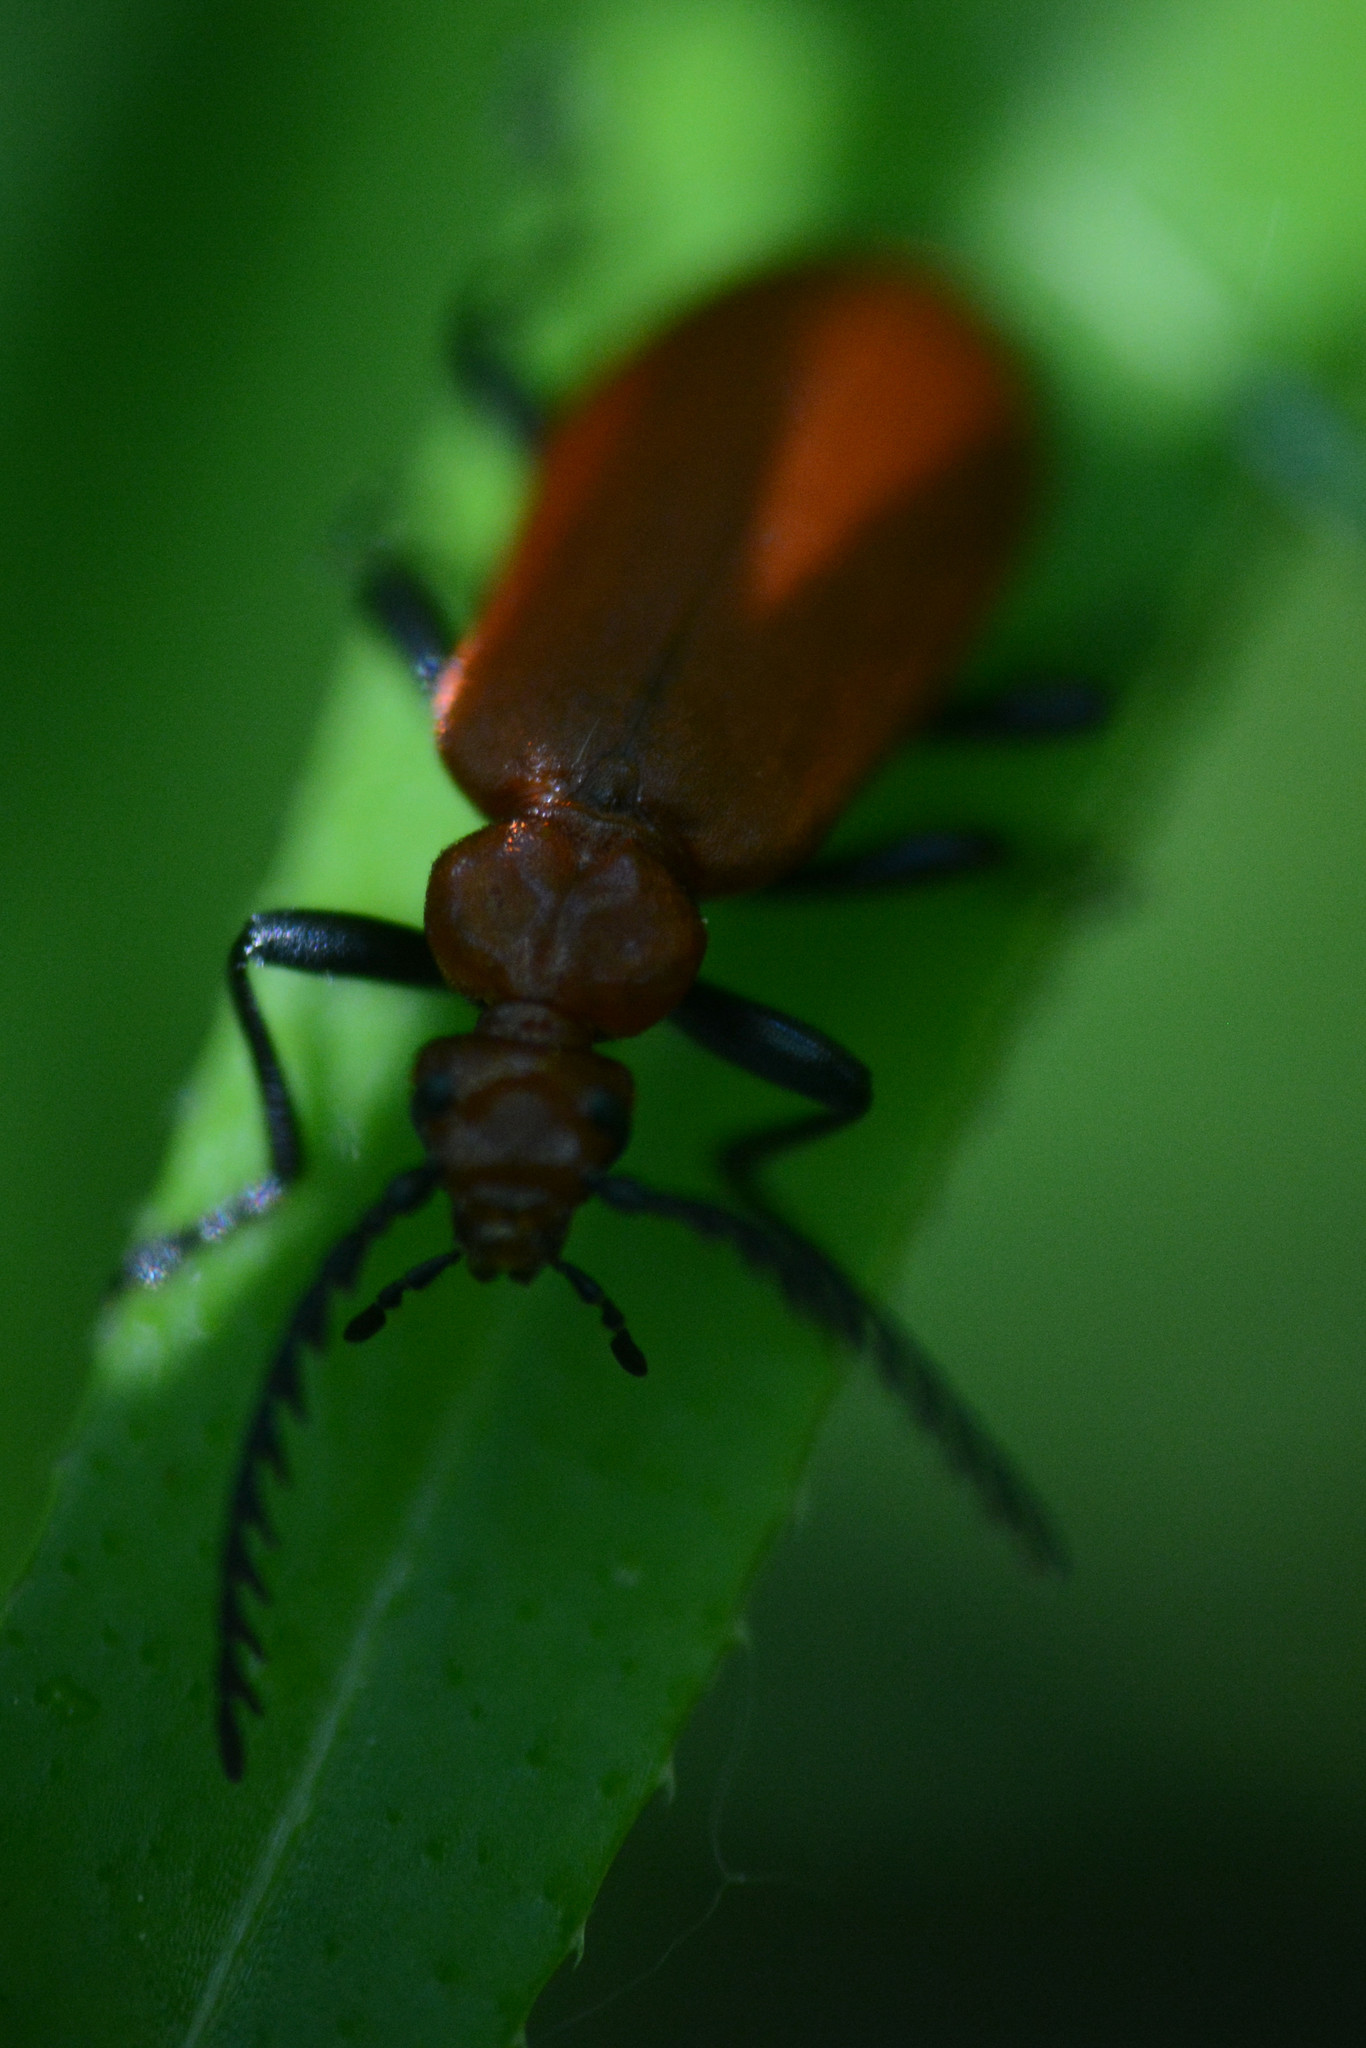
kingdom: Animalia
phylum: Arthropoda
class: Insecta
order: Coleoptera
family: Pyrochroidae
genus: Pyrochroa
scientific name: Pyrochroa serraticornis
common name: Red-headed cardinal beetle
